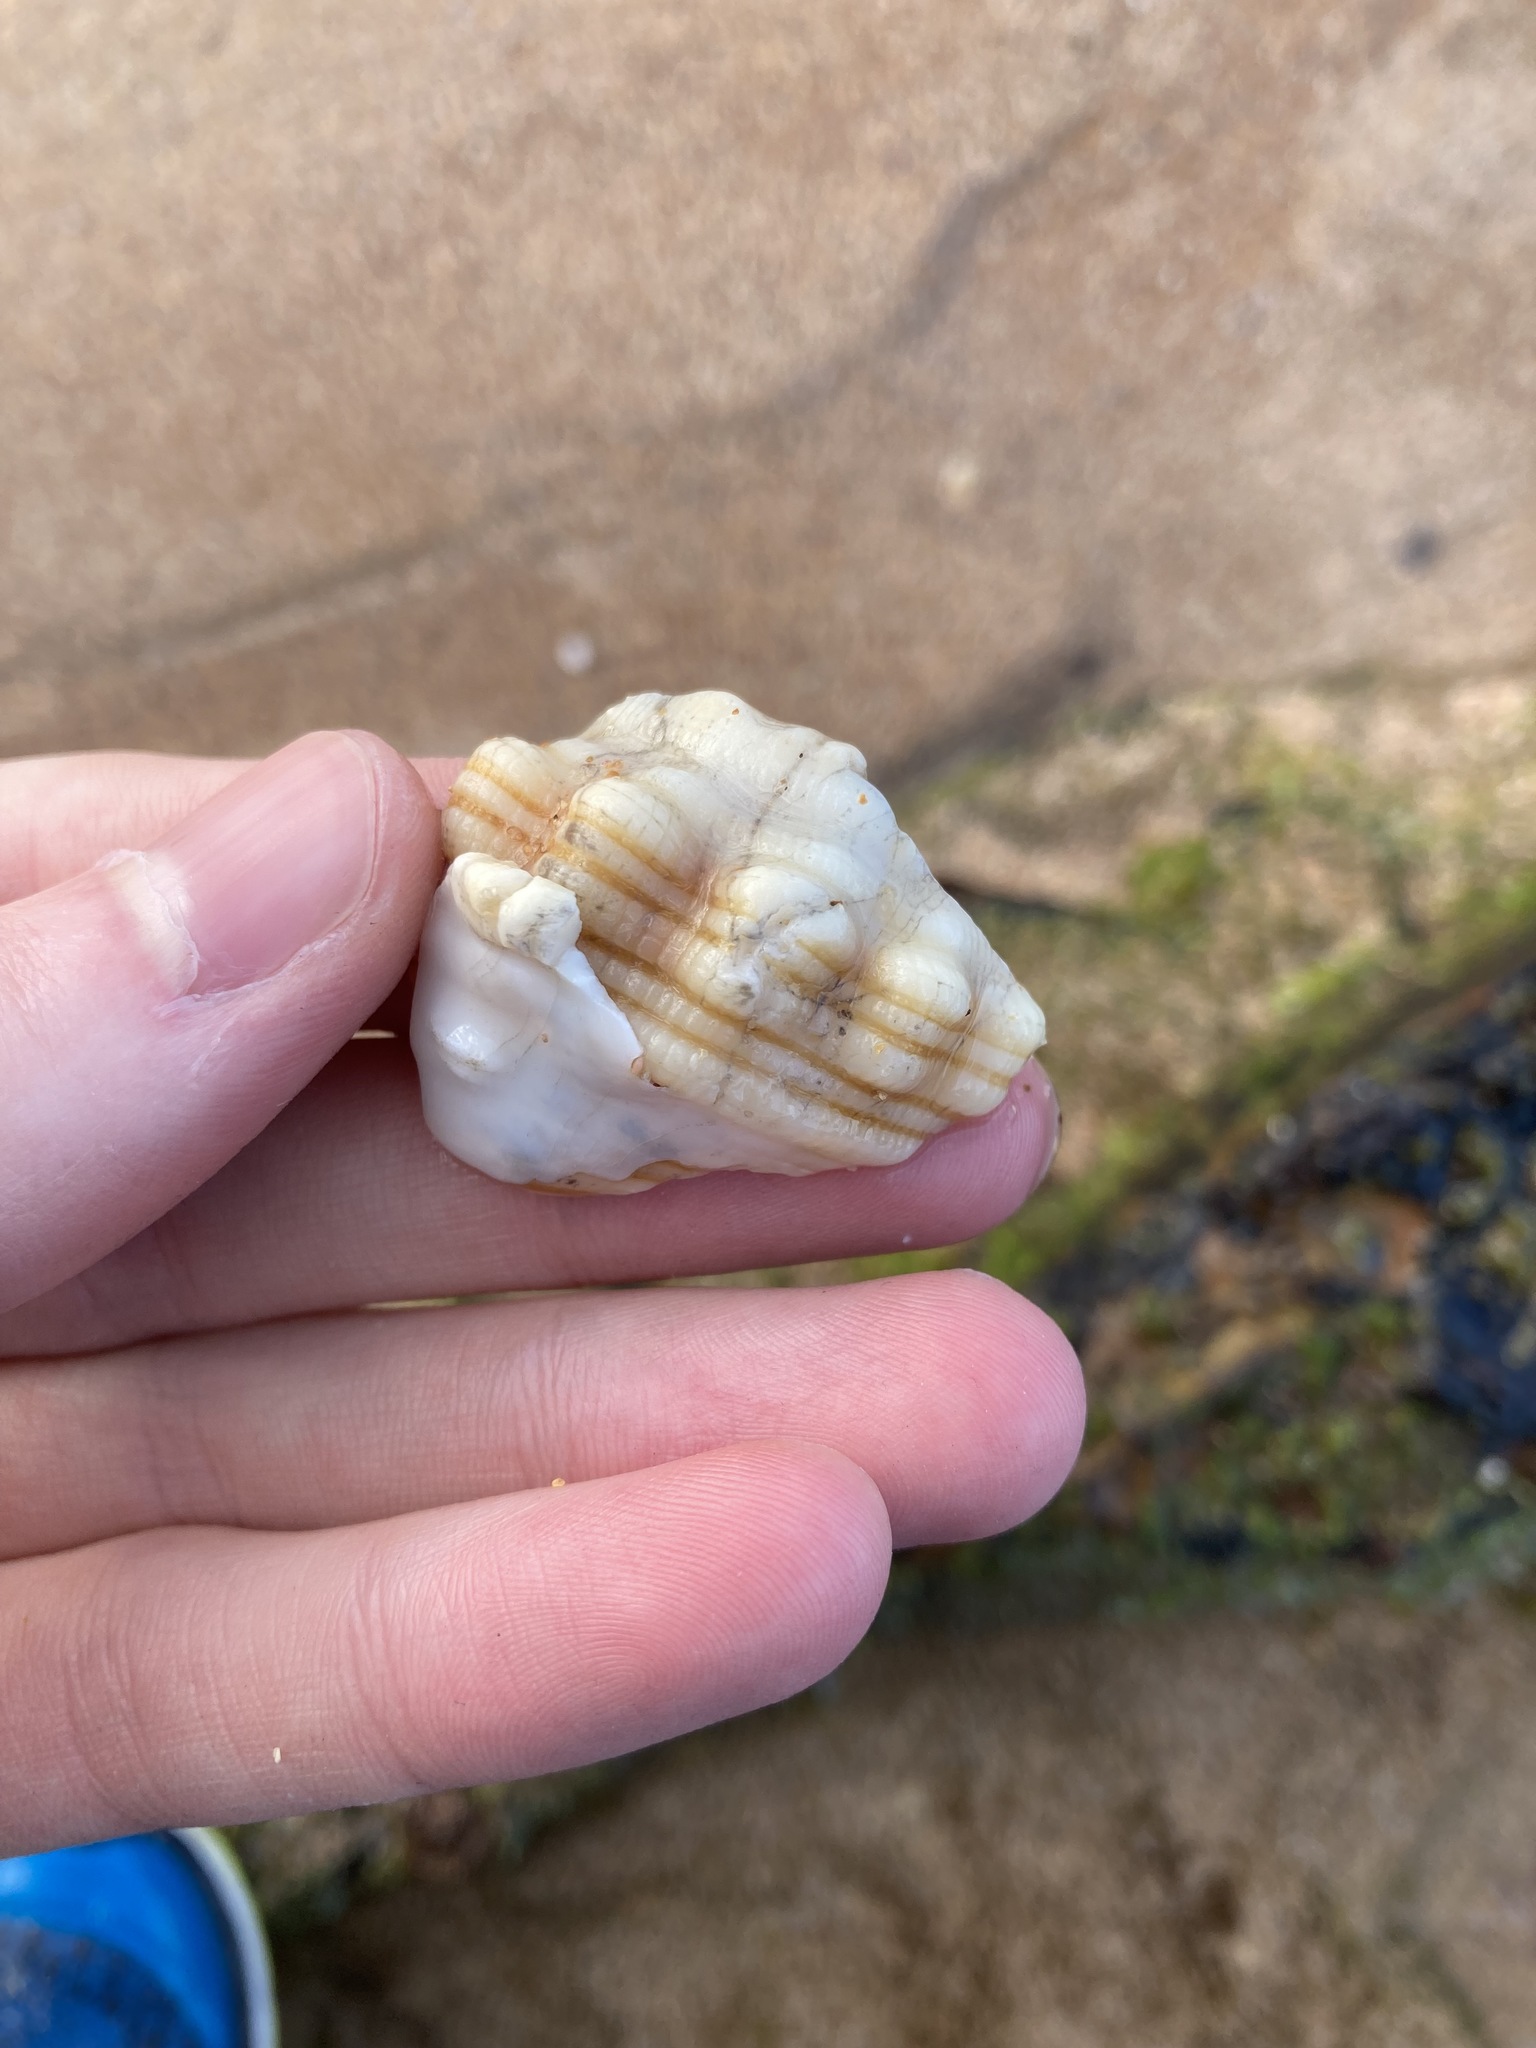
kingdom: Animalia
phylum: Mollusca
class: Gastropoda
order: Littorinimorpha
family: Cymatiidae
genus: Cabestana
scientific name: Cabestana spengleri
